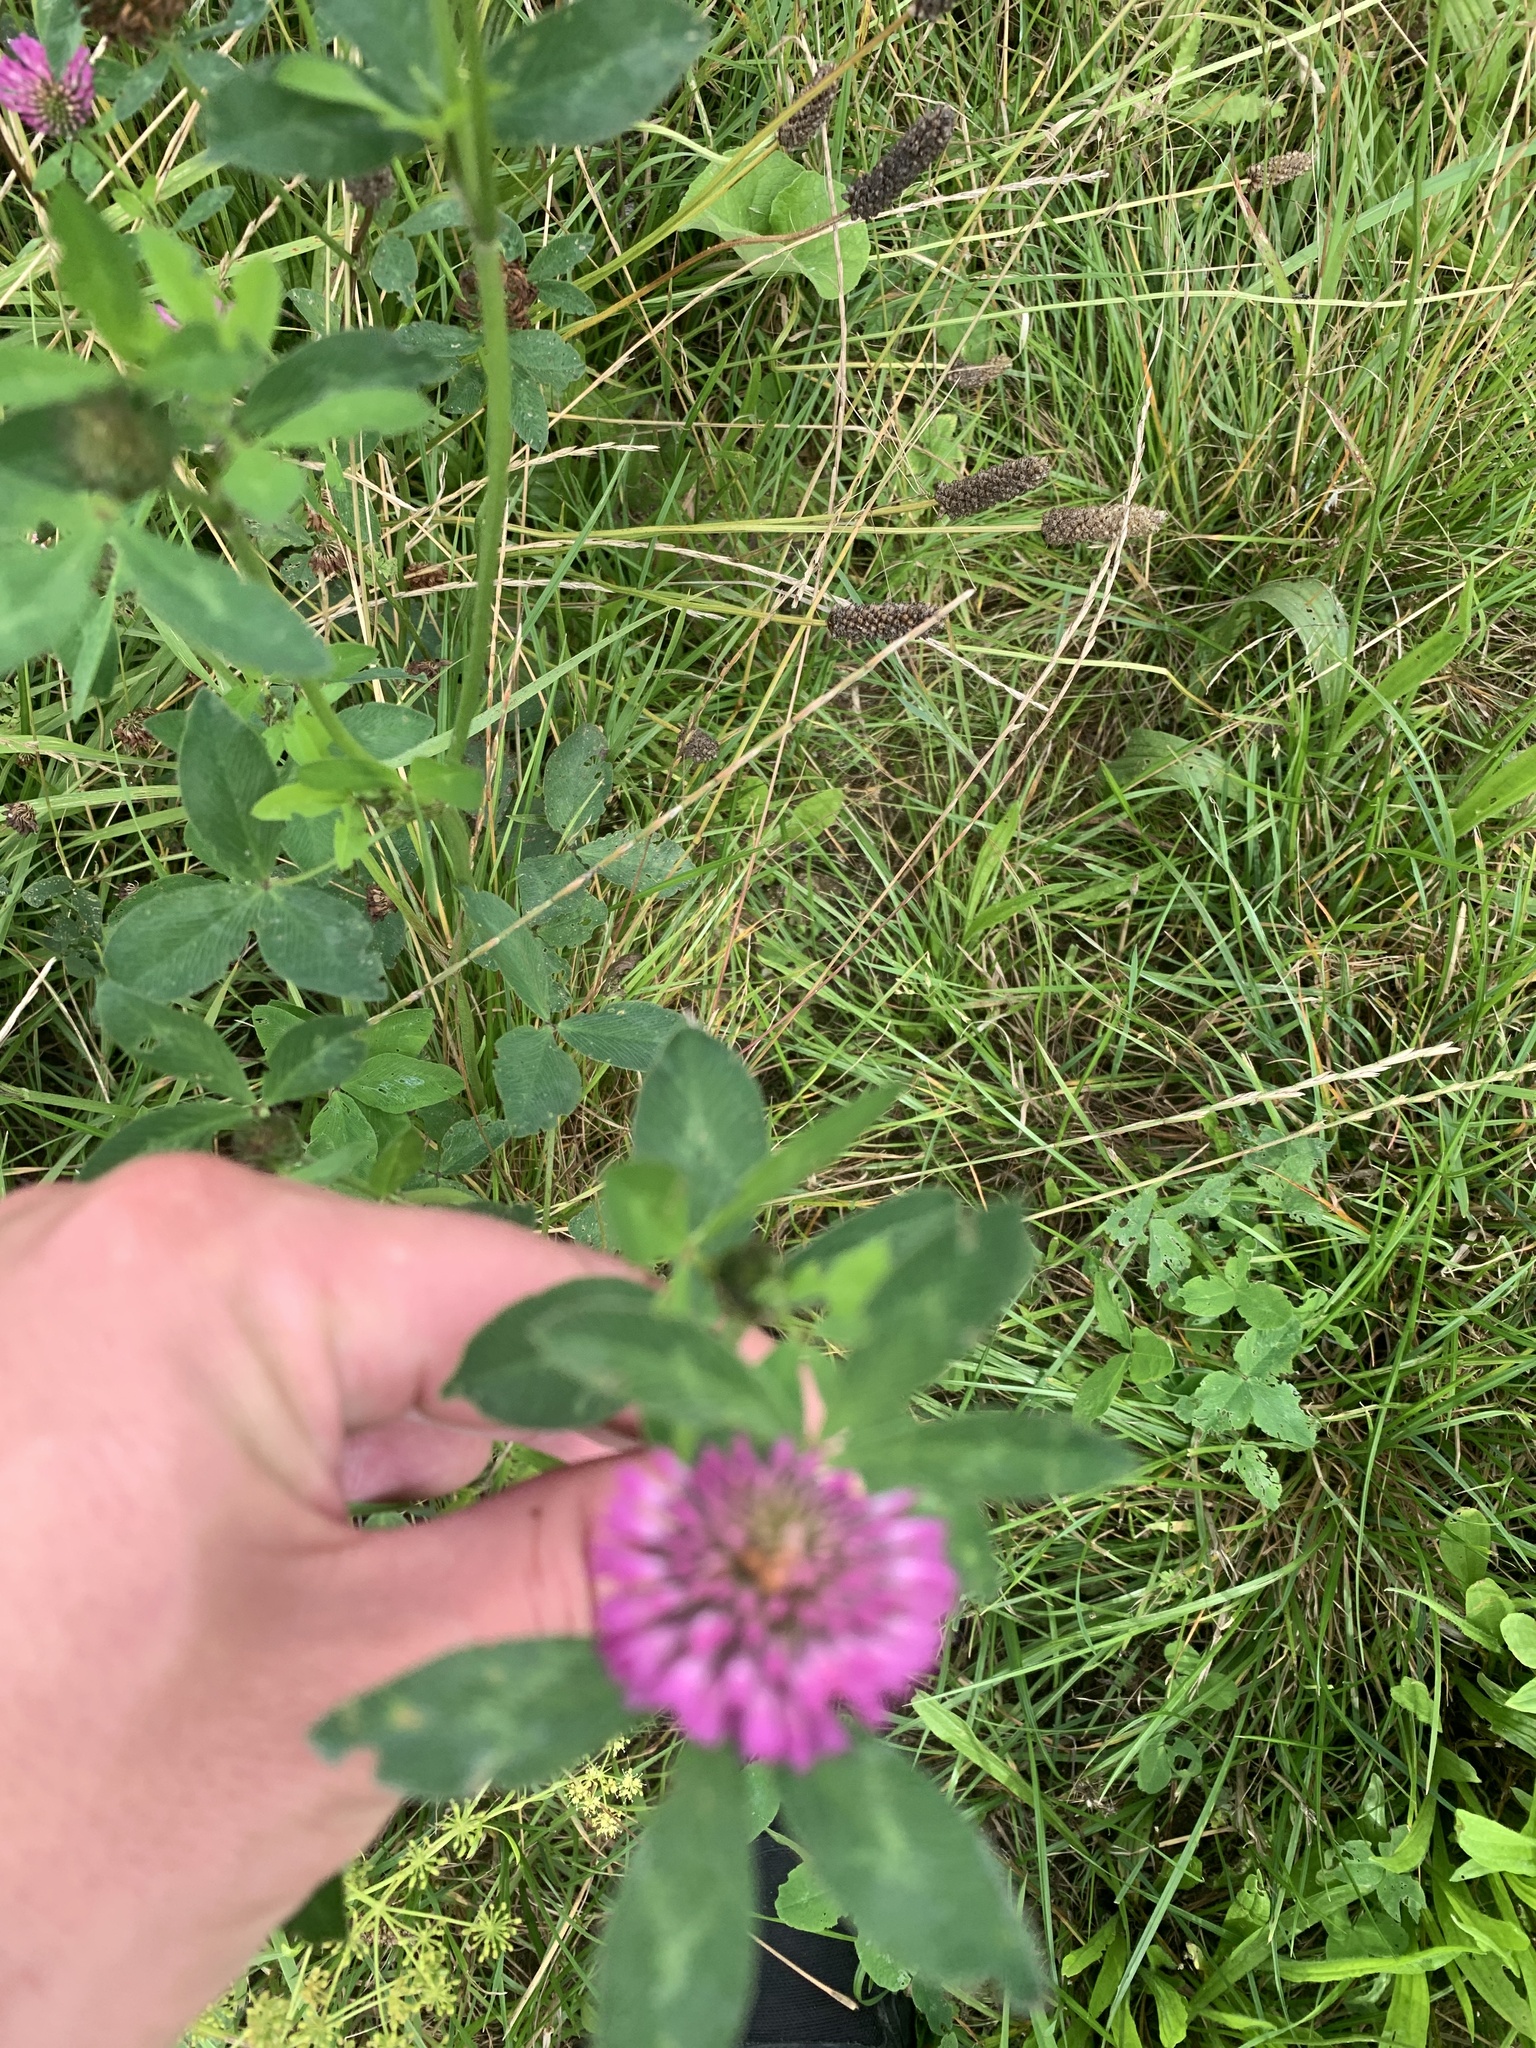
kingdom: Plantae
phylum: Tracheophyta
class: Magnoliopsida
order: Fabales
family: Fabaceae
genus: Trifolium
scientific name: Trifolium pratense
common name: Red clover
